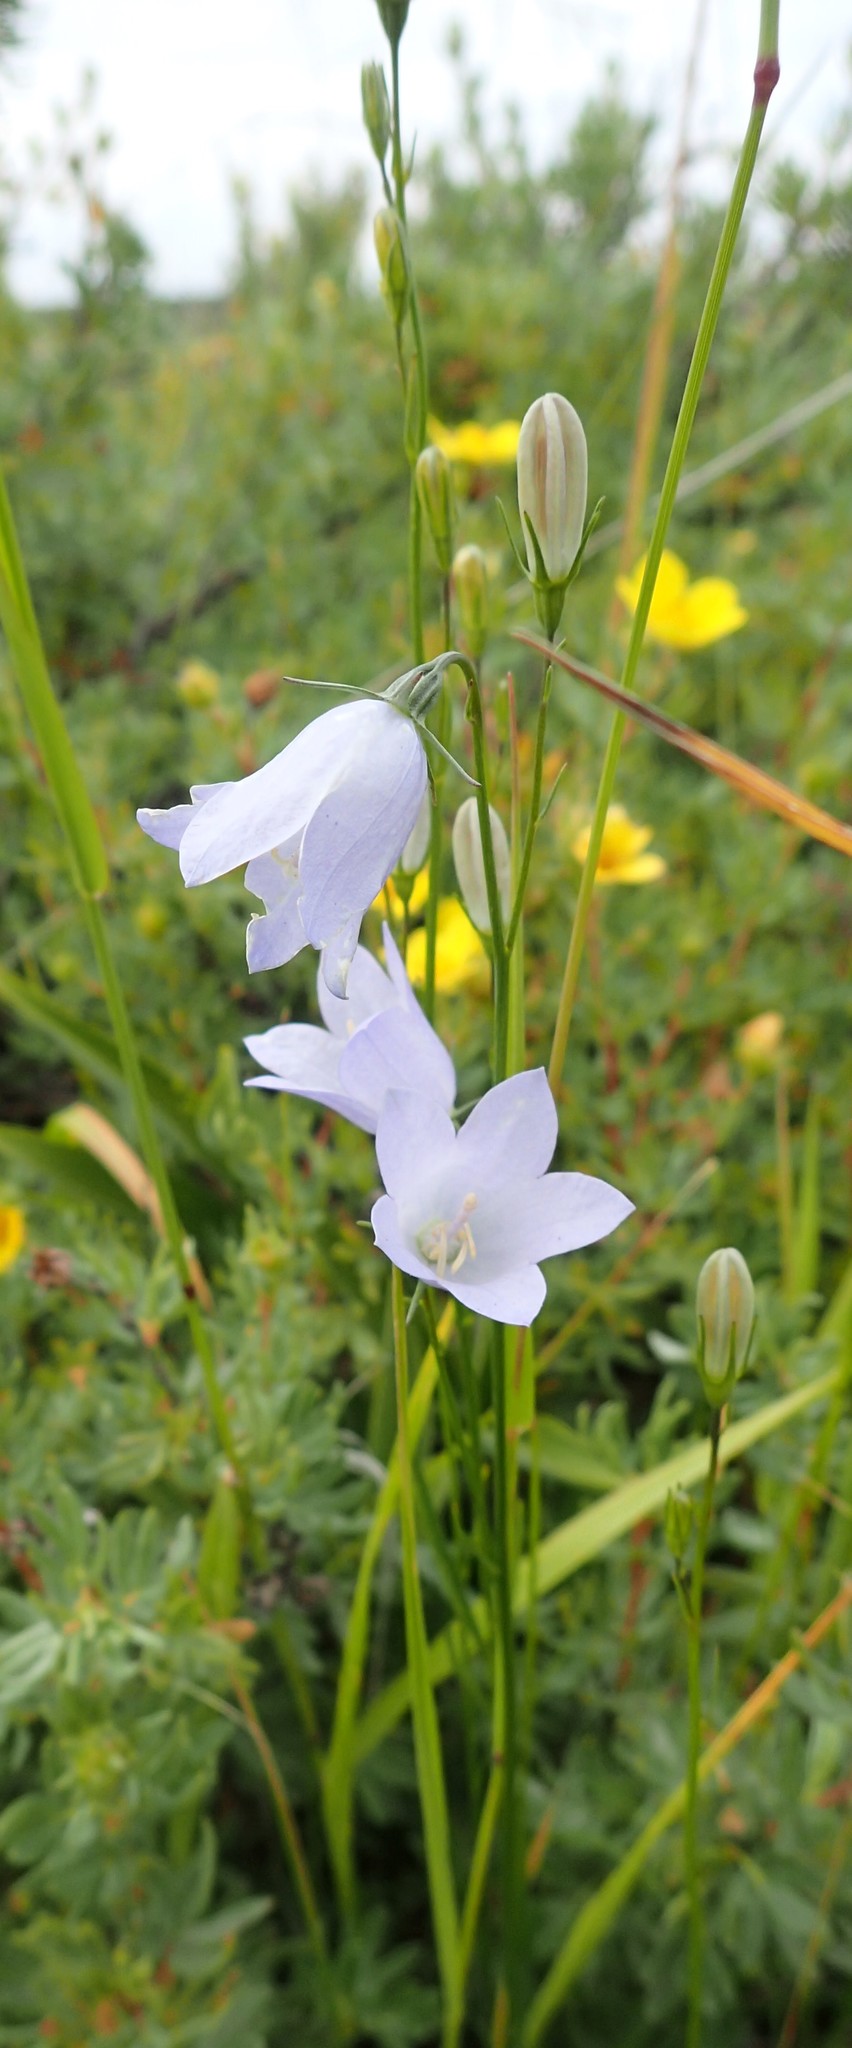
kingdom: Plantae
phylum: Tracheophyta
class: Magnoliopsida
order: Asterales
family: Campanulaceae
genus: Campanula
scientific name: Campanula alaskana
